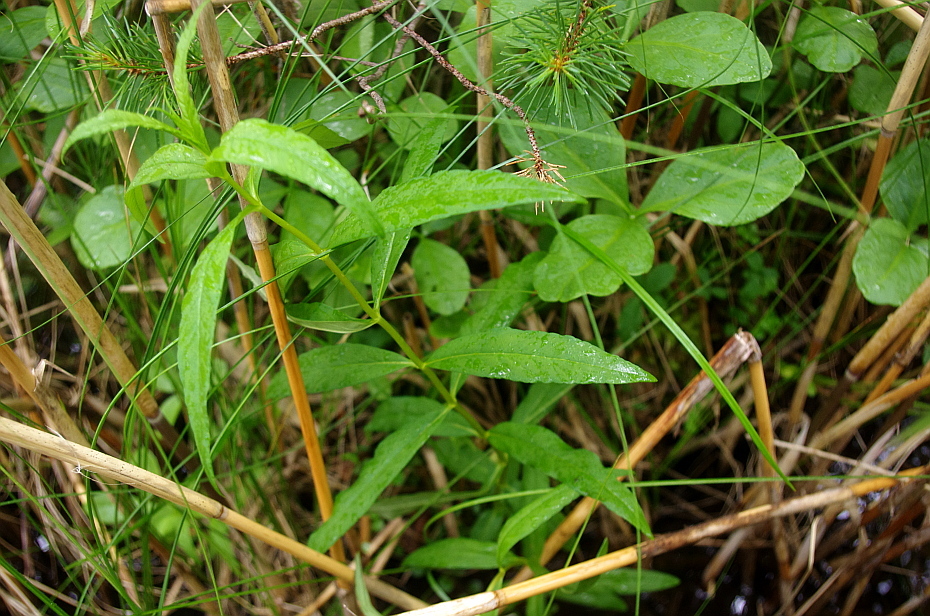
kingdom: Plantae
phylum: Tracheophyta
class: Magnoliopsida
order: Ericales
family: Primulaceae
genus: Lysimachia
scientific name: Lysimachia thyrsiflora
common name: Tufted loosestrife
